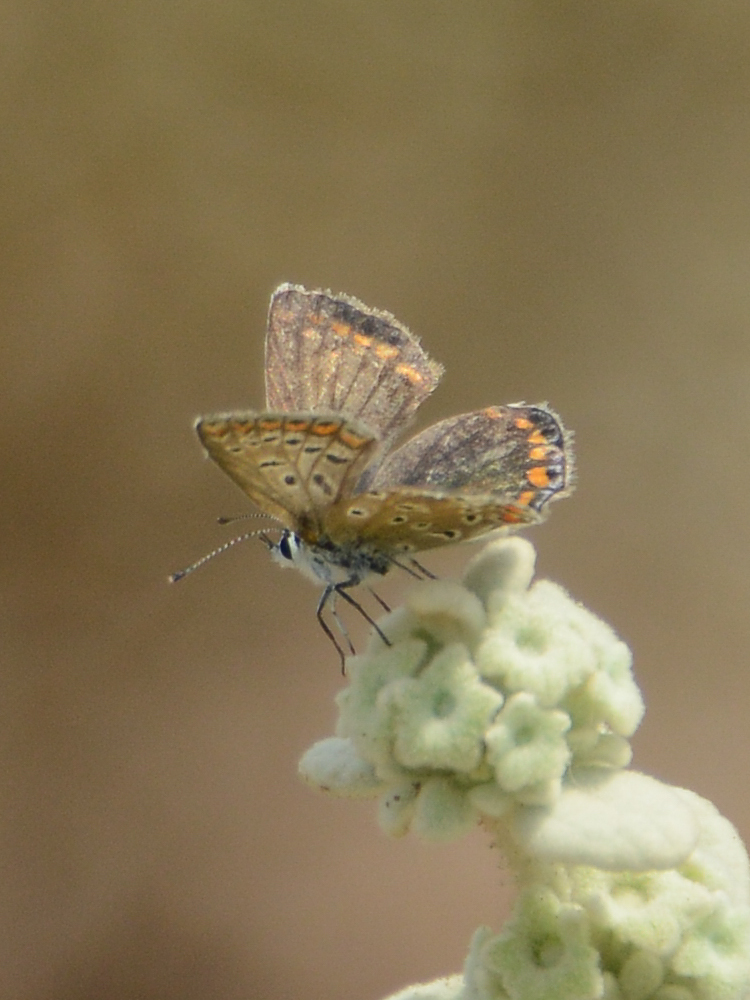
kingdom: Animalia
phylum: Arthropoda
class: Insecta
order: Lepidoptera
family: Lycaenidae
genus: Polyommatus
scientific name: Polyommatus icarus
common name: Common blue
